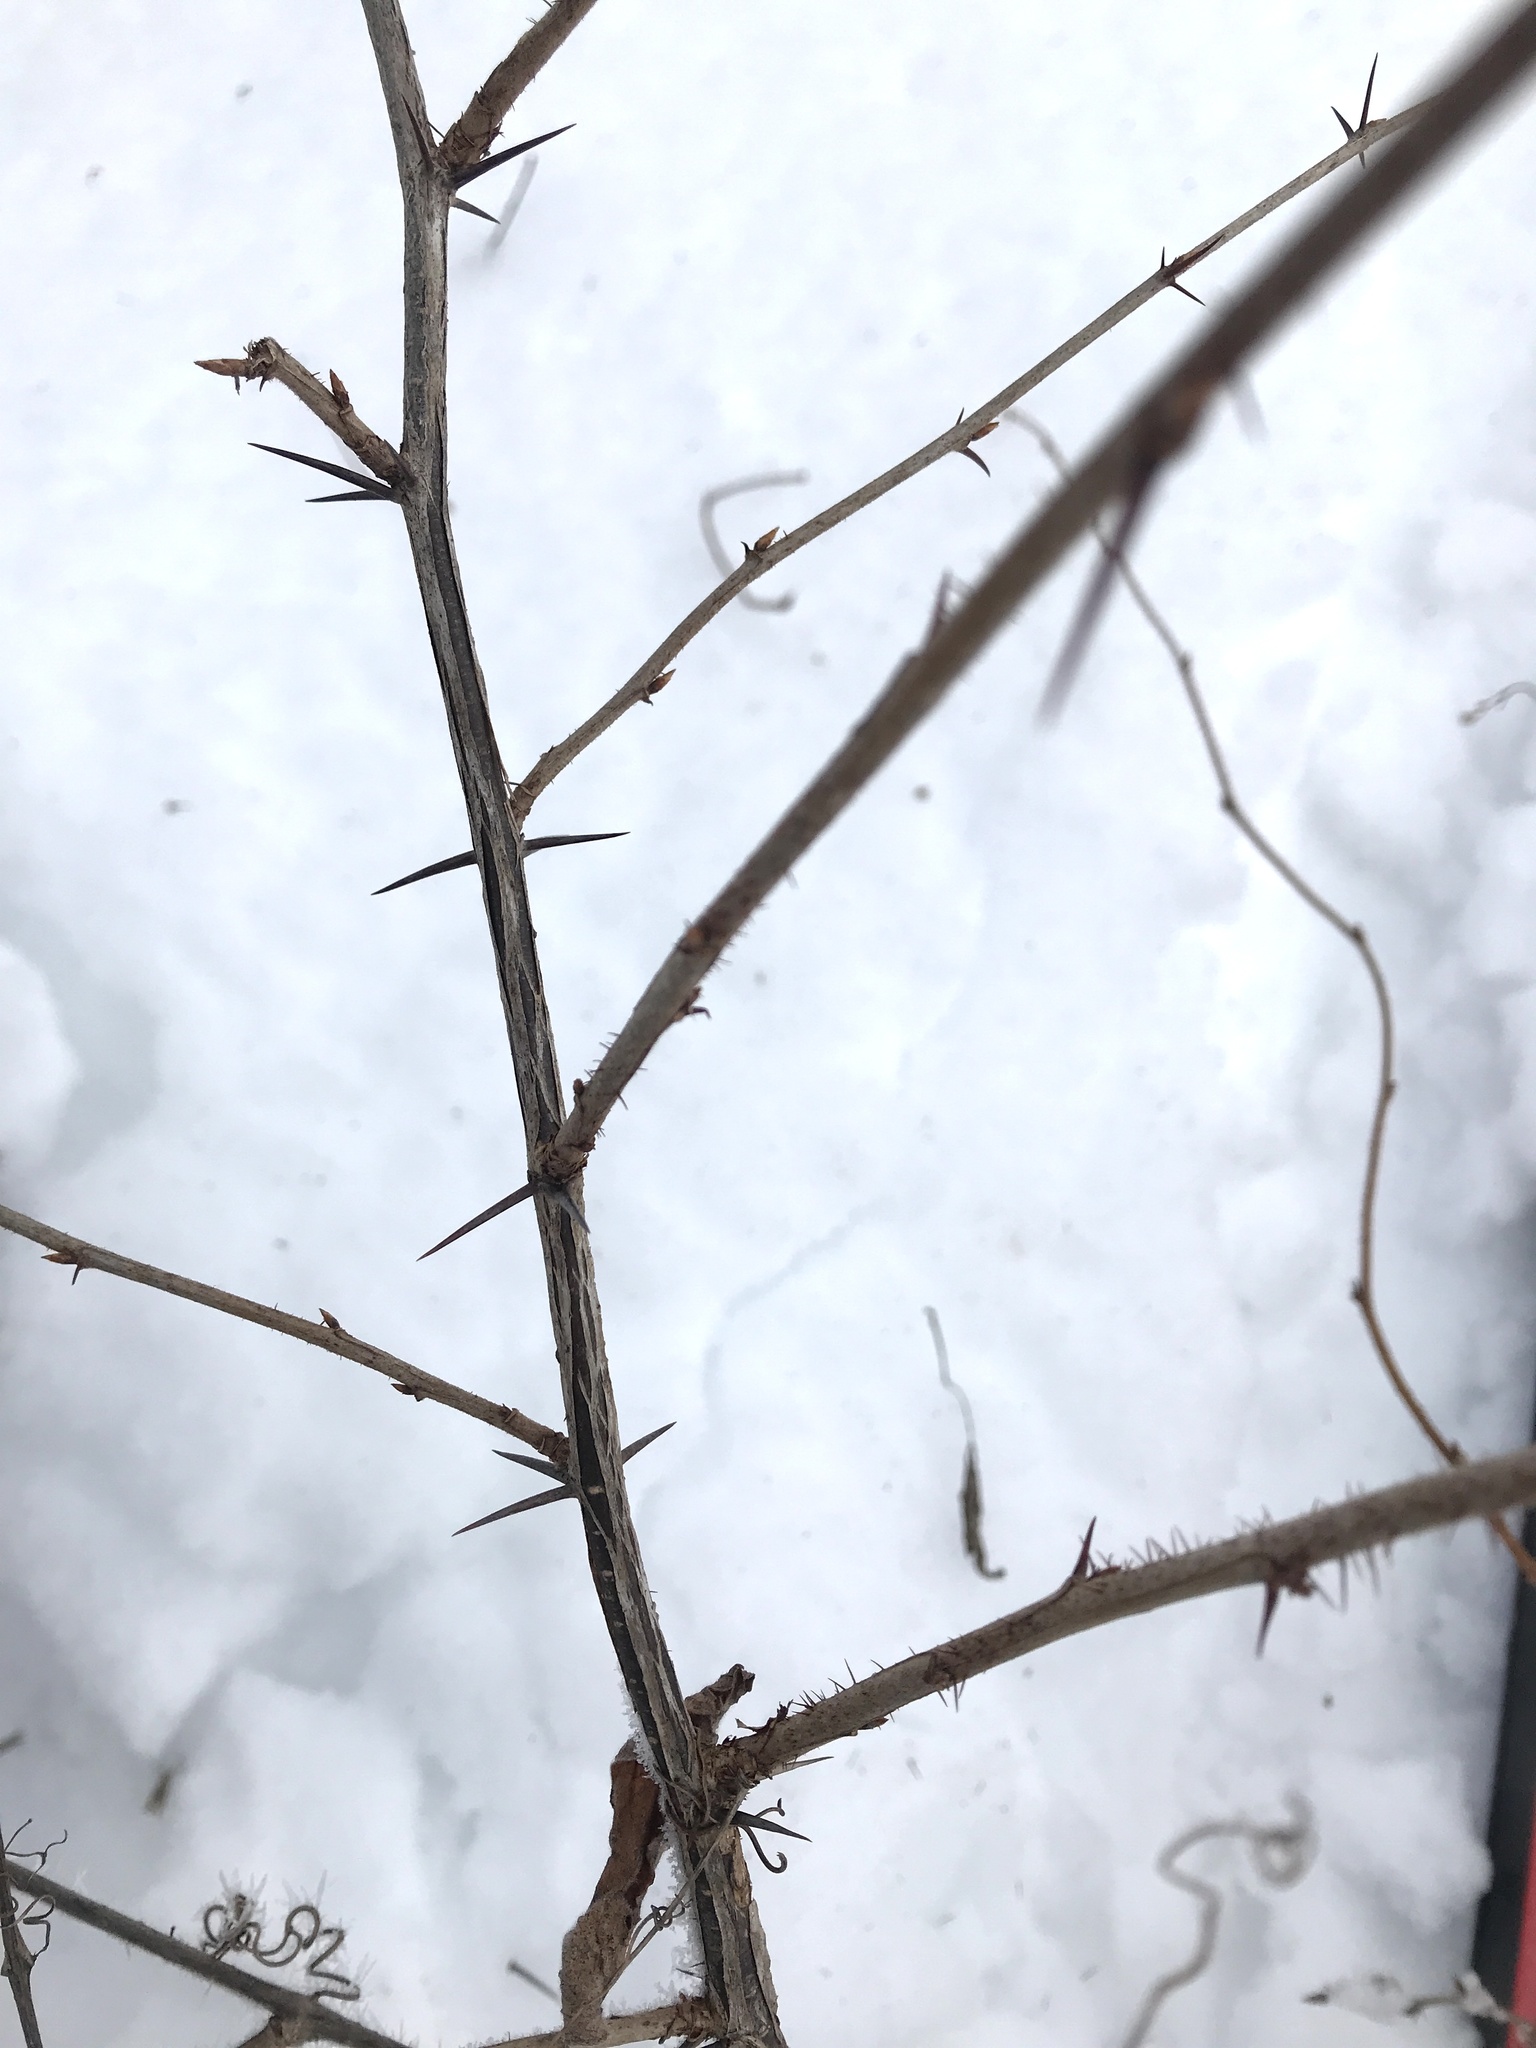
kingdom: Plantae
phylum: Tracheophyta
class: Magnoliopsida
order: Saxifragales
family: Grossulariaceae
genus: Ribes
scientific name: Ribes cynosbati
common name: American gooseberry
